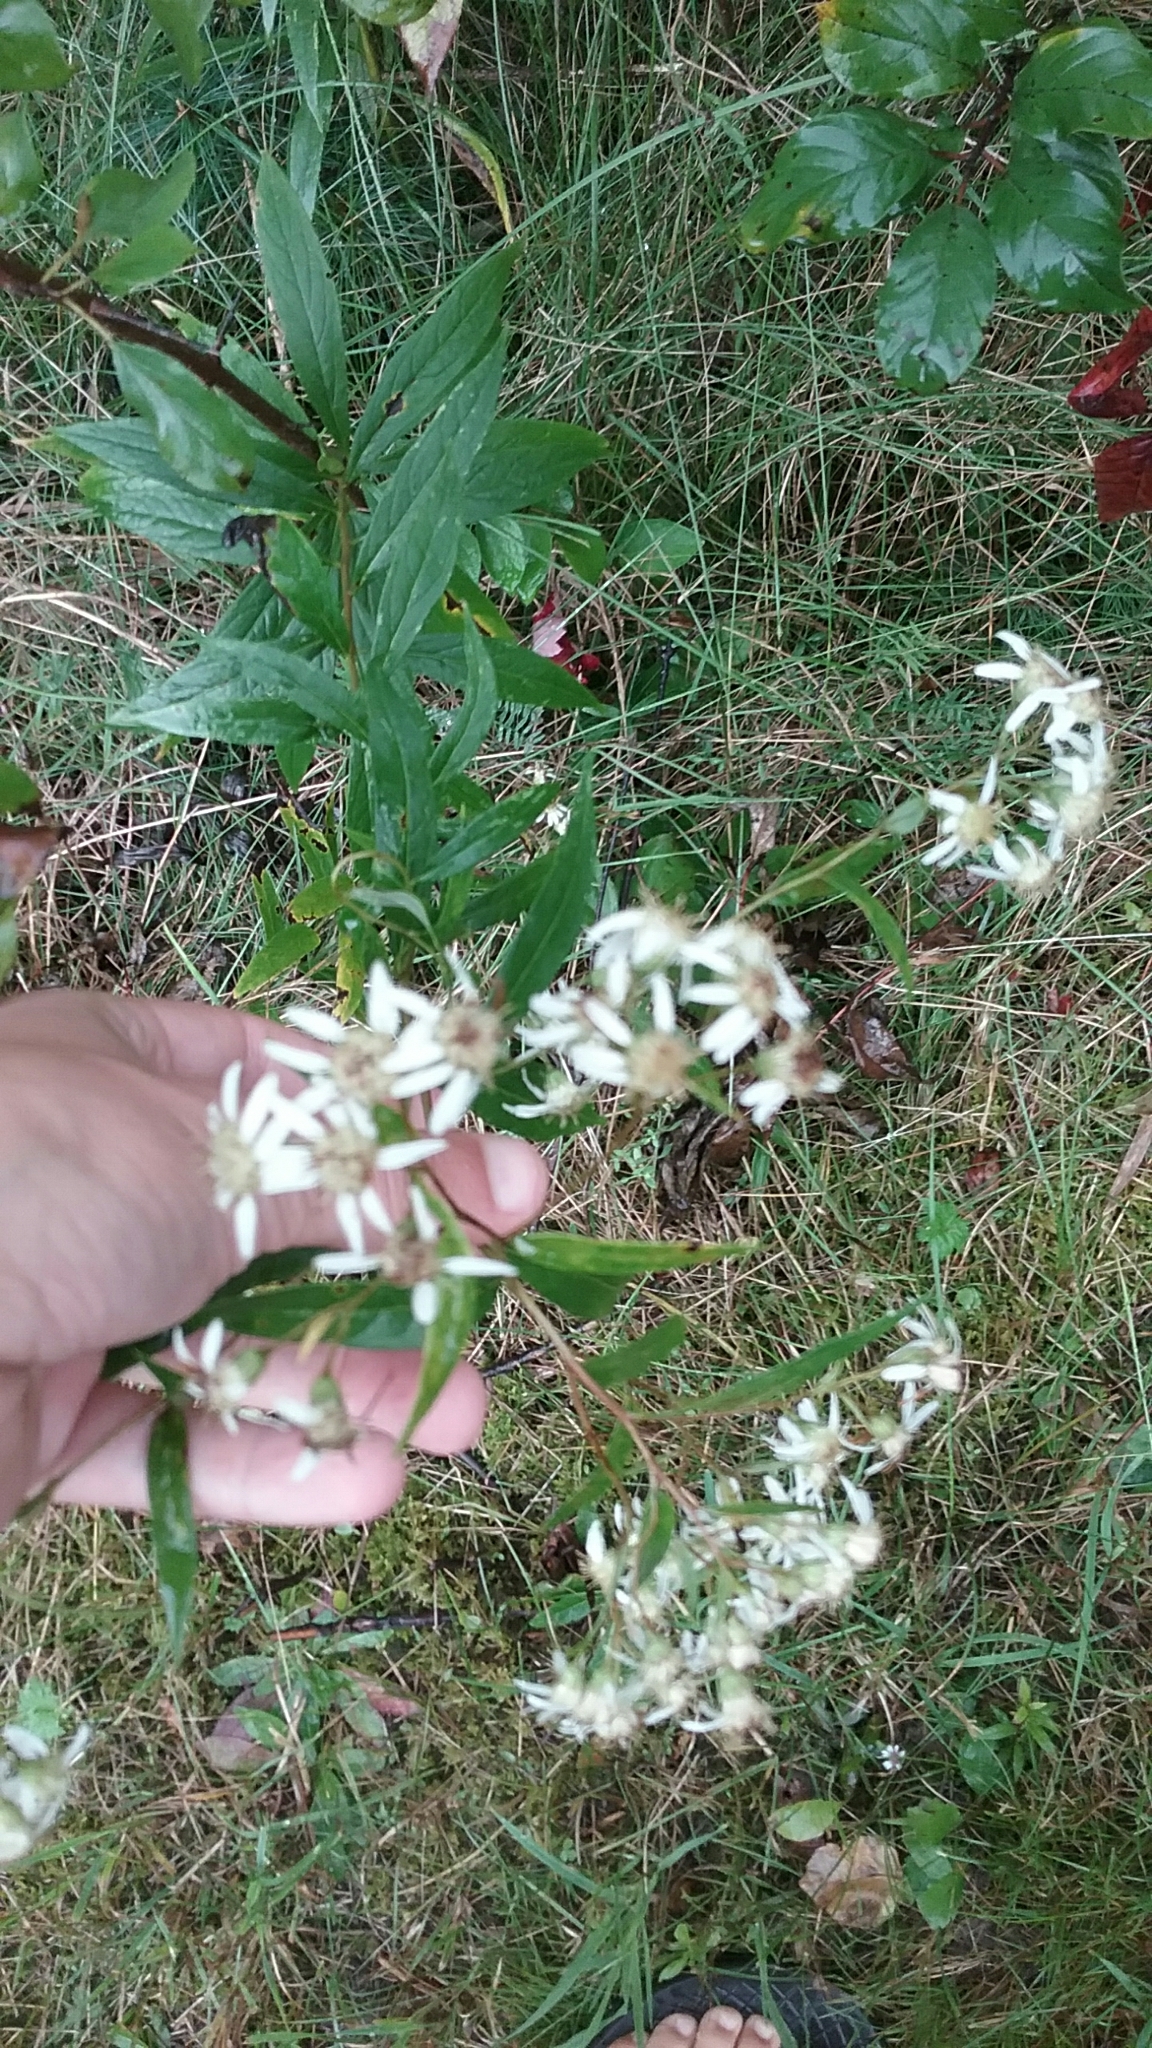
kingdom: Plantae
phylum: Tracheophyta
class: Magnoliopsida
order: Asterales
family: Asteraceae
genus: Doellingeria
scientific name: Doellingeria umbellata
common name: Flat-top white aster
